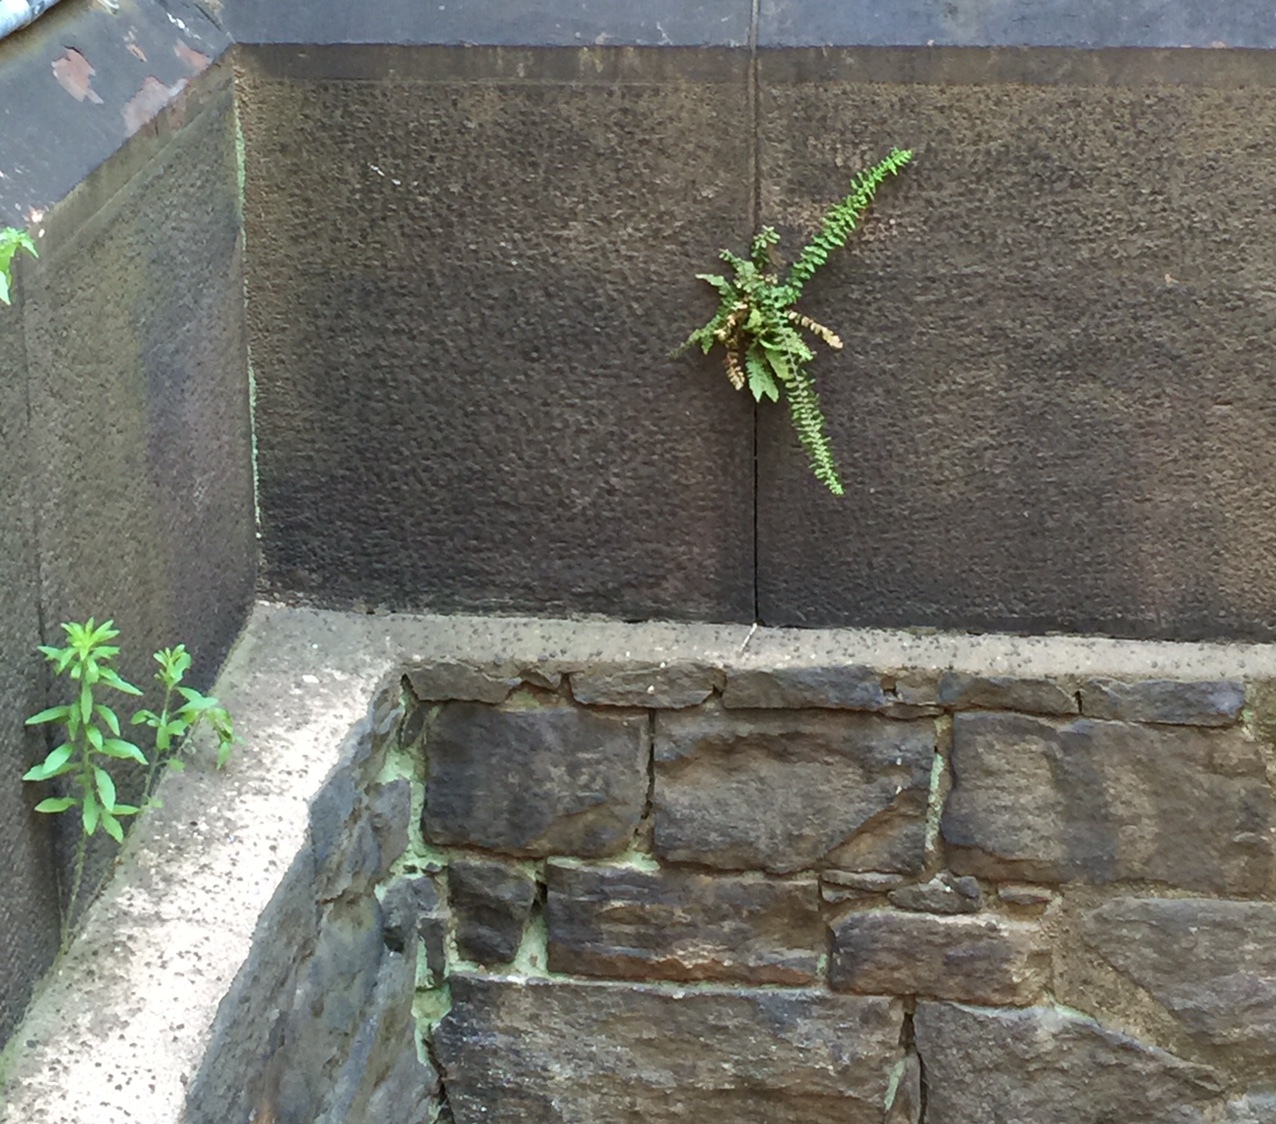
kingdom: Plantae
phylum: Tracheophyta
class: Polypodiopsida
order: Polypodiales
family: Aspleniaceae
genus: Asplenium
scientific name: Asplenium platyneuron
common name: Ebony spleenwort
